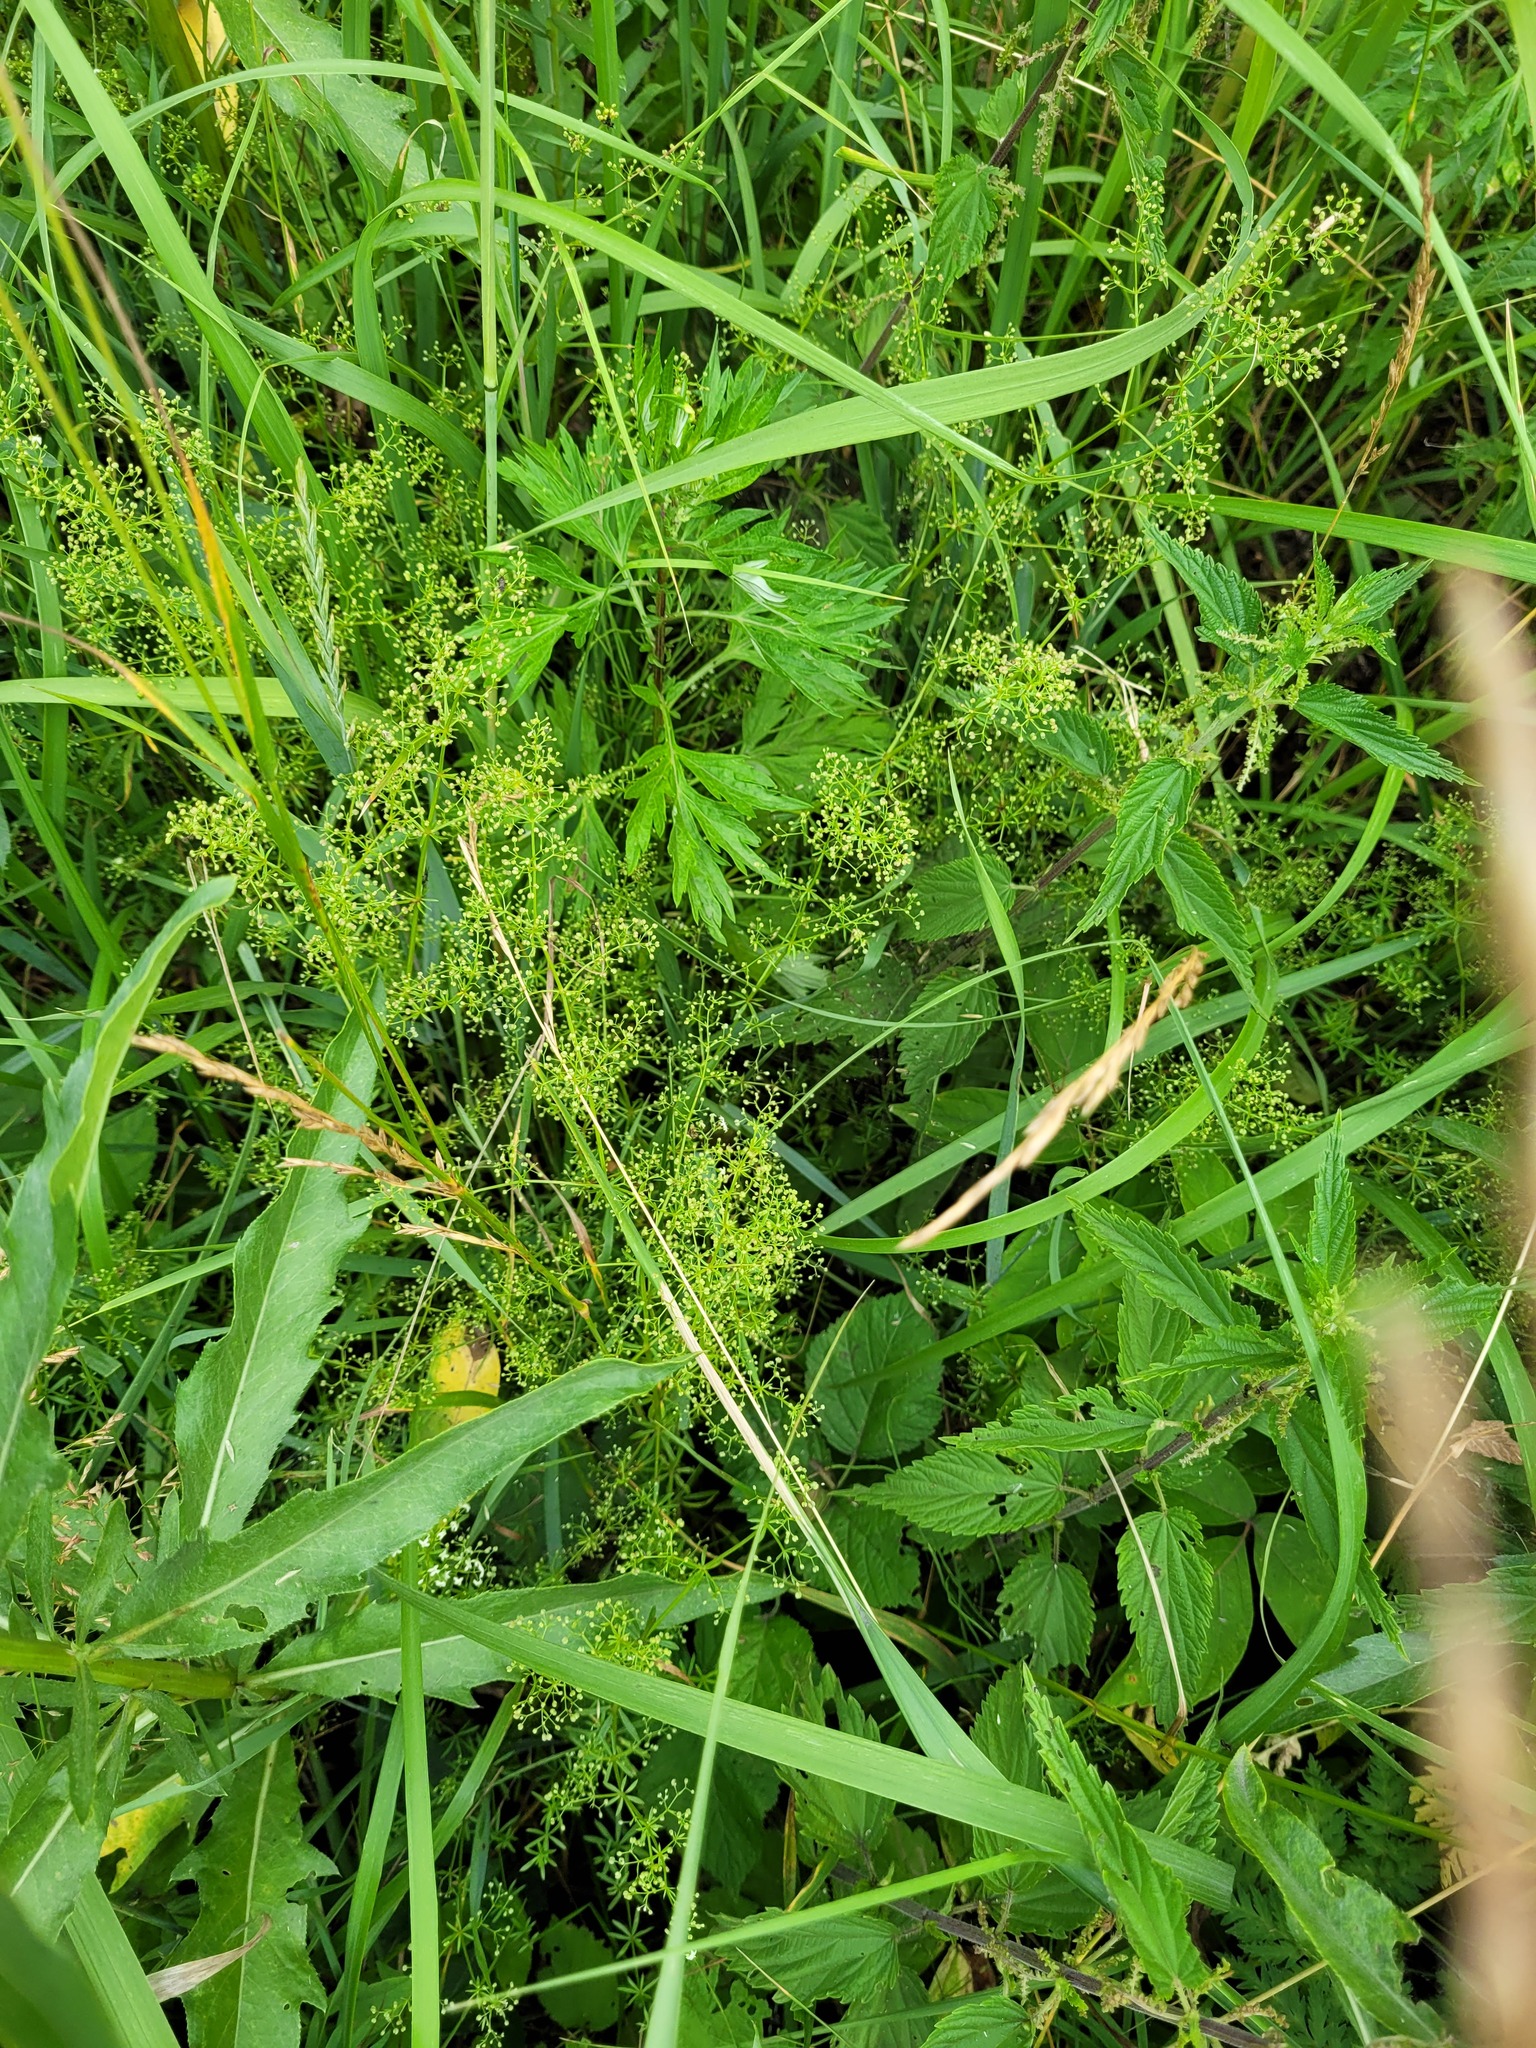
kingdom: Plantae
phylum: Tracheophyta
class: Magnoliopsida
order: Gentianales
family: Rubiaceae
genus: Galium
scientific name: Galium mollugo
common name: Hedge bedstraw
